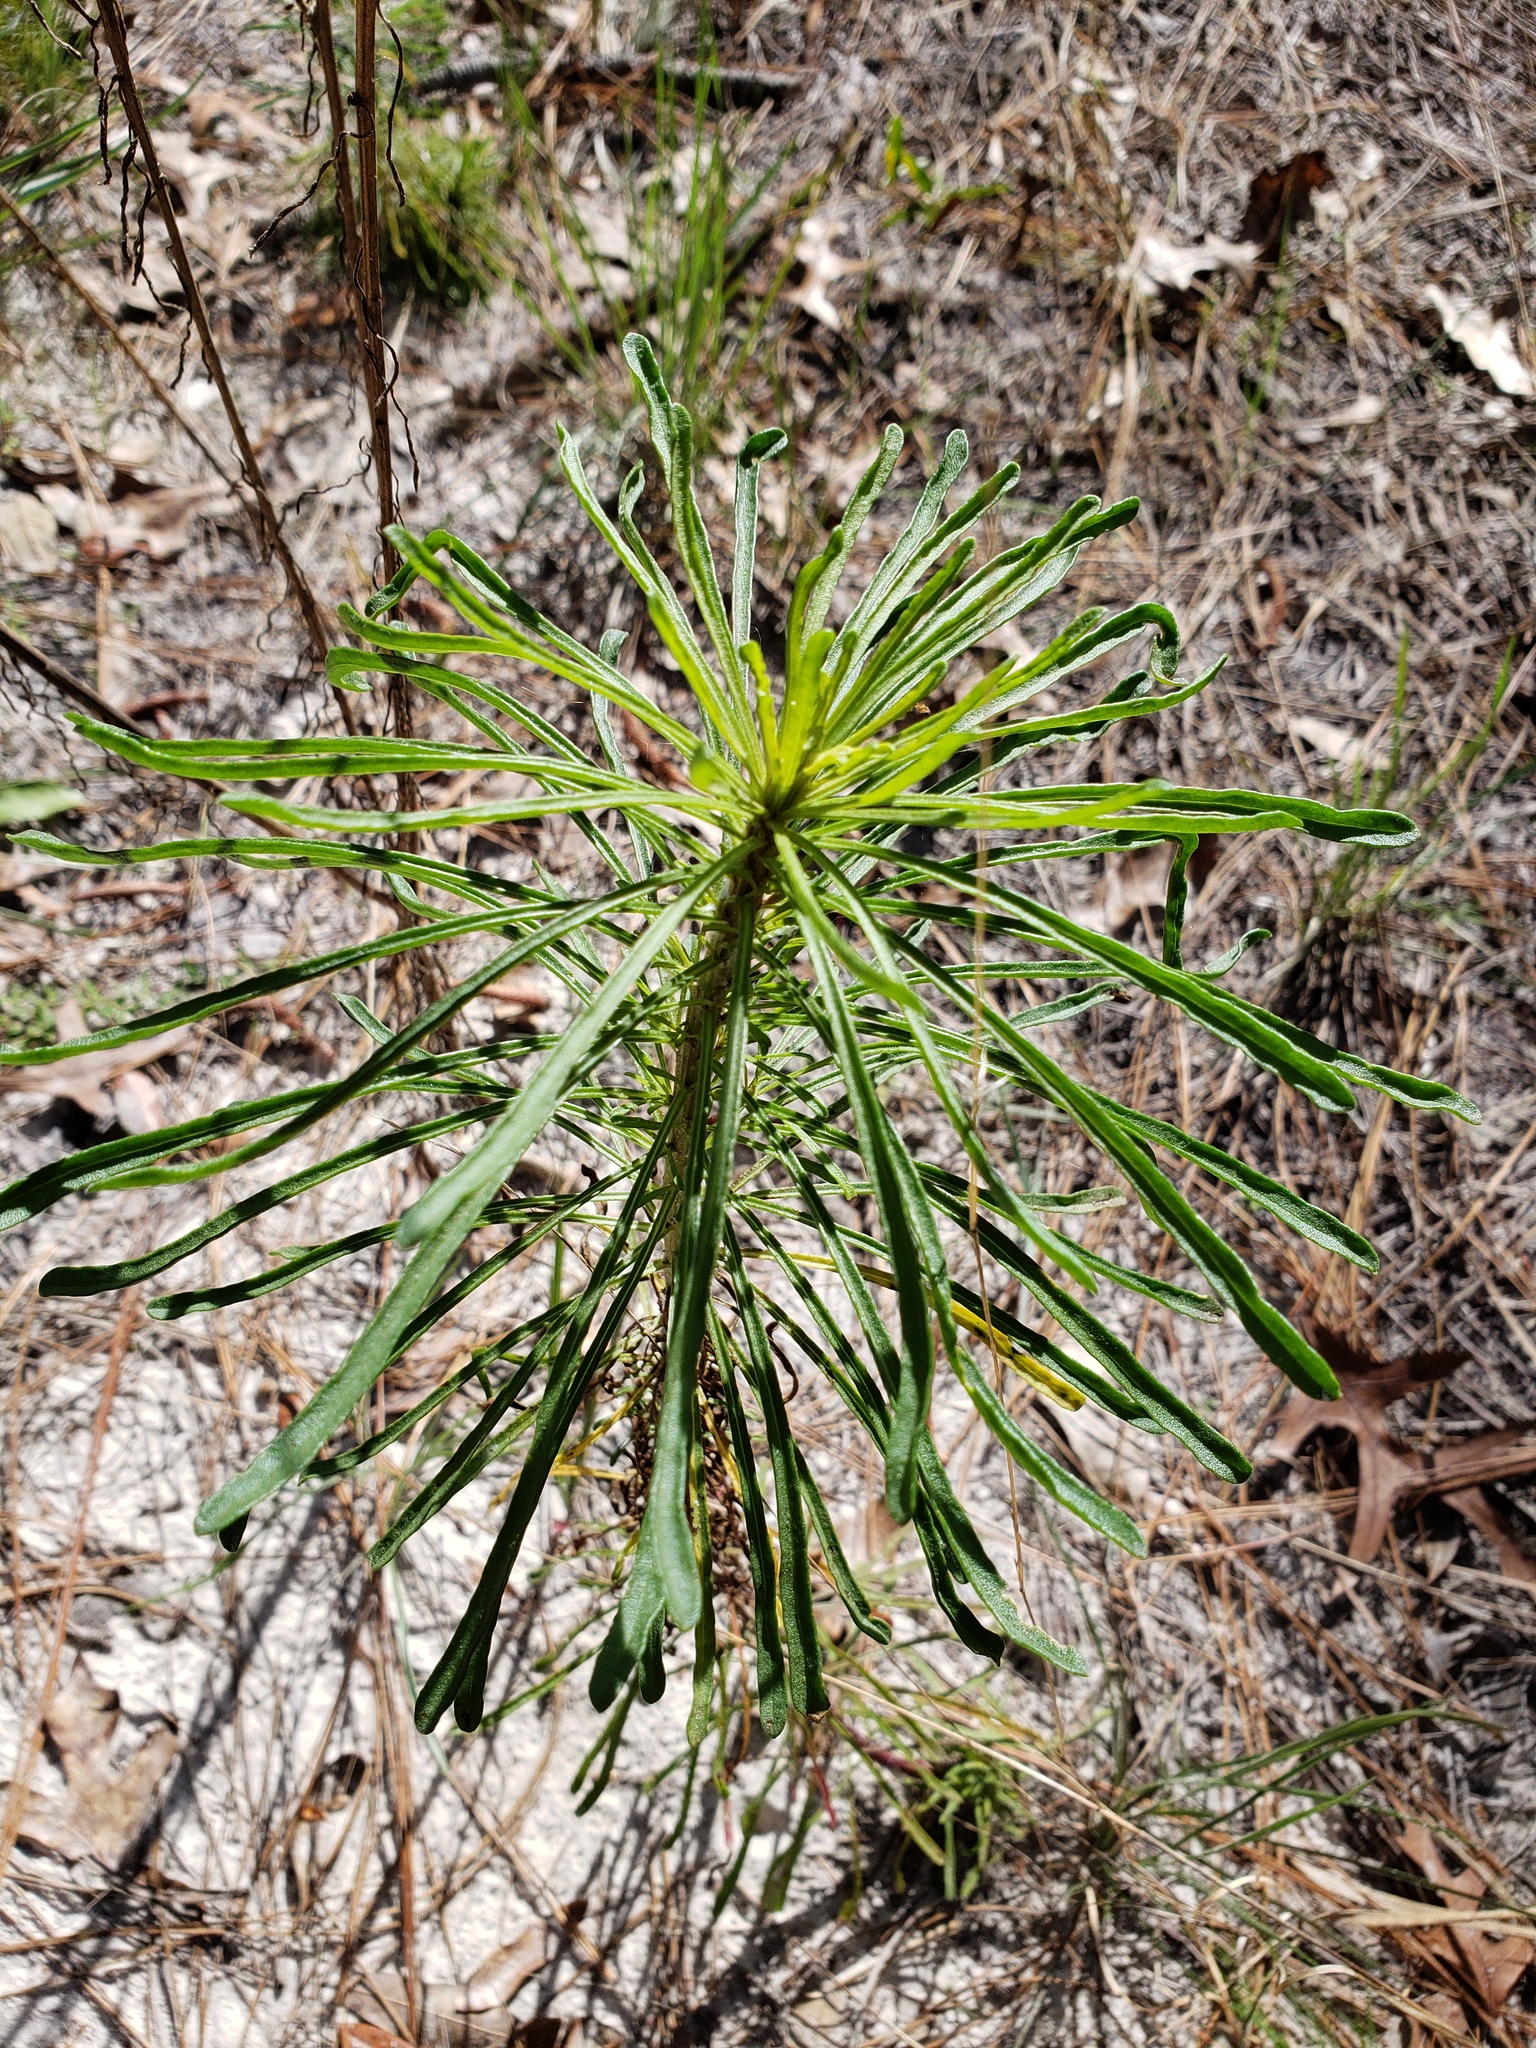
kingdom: Plantae
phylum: Tracheophyta
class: Magnoliopsida
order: Asterales
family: Asteraceae
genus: Balduina
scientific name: Balduina angustifolia
